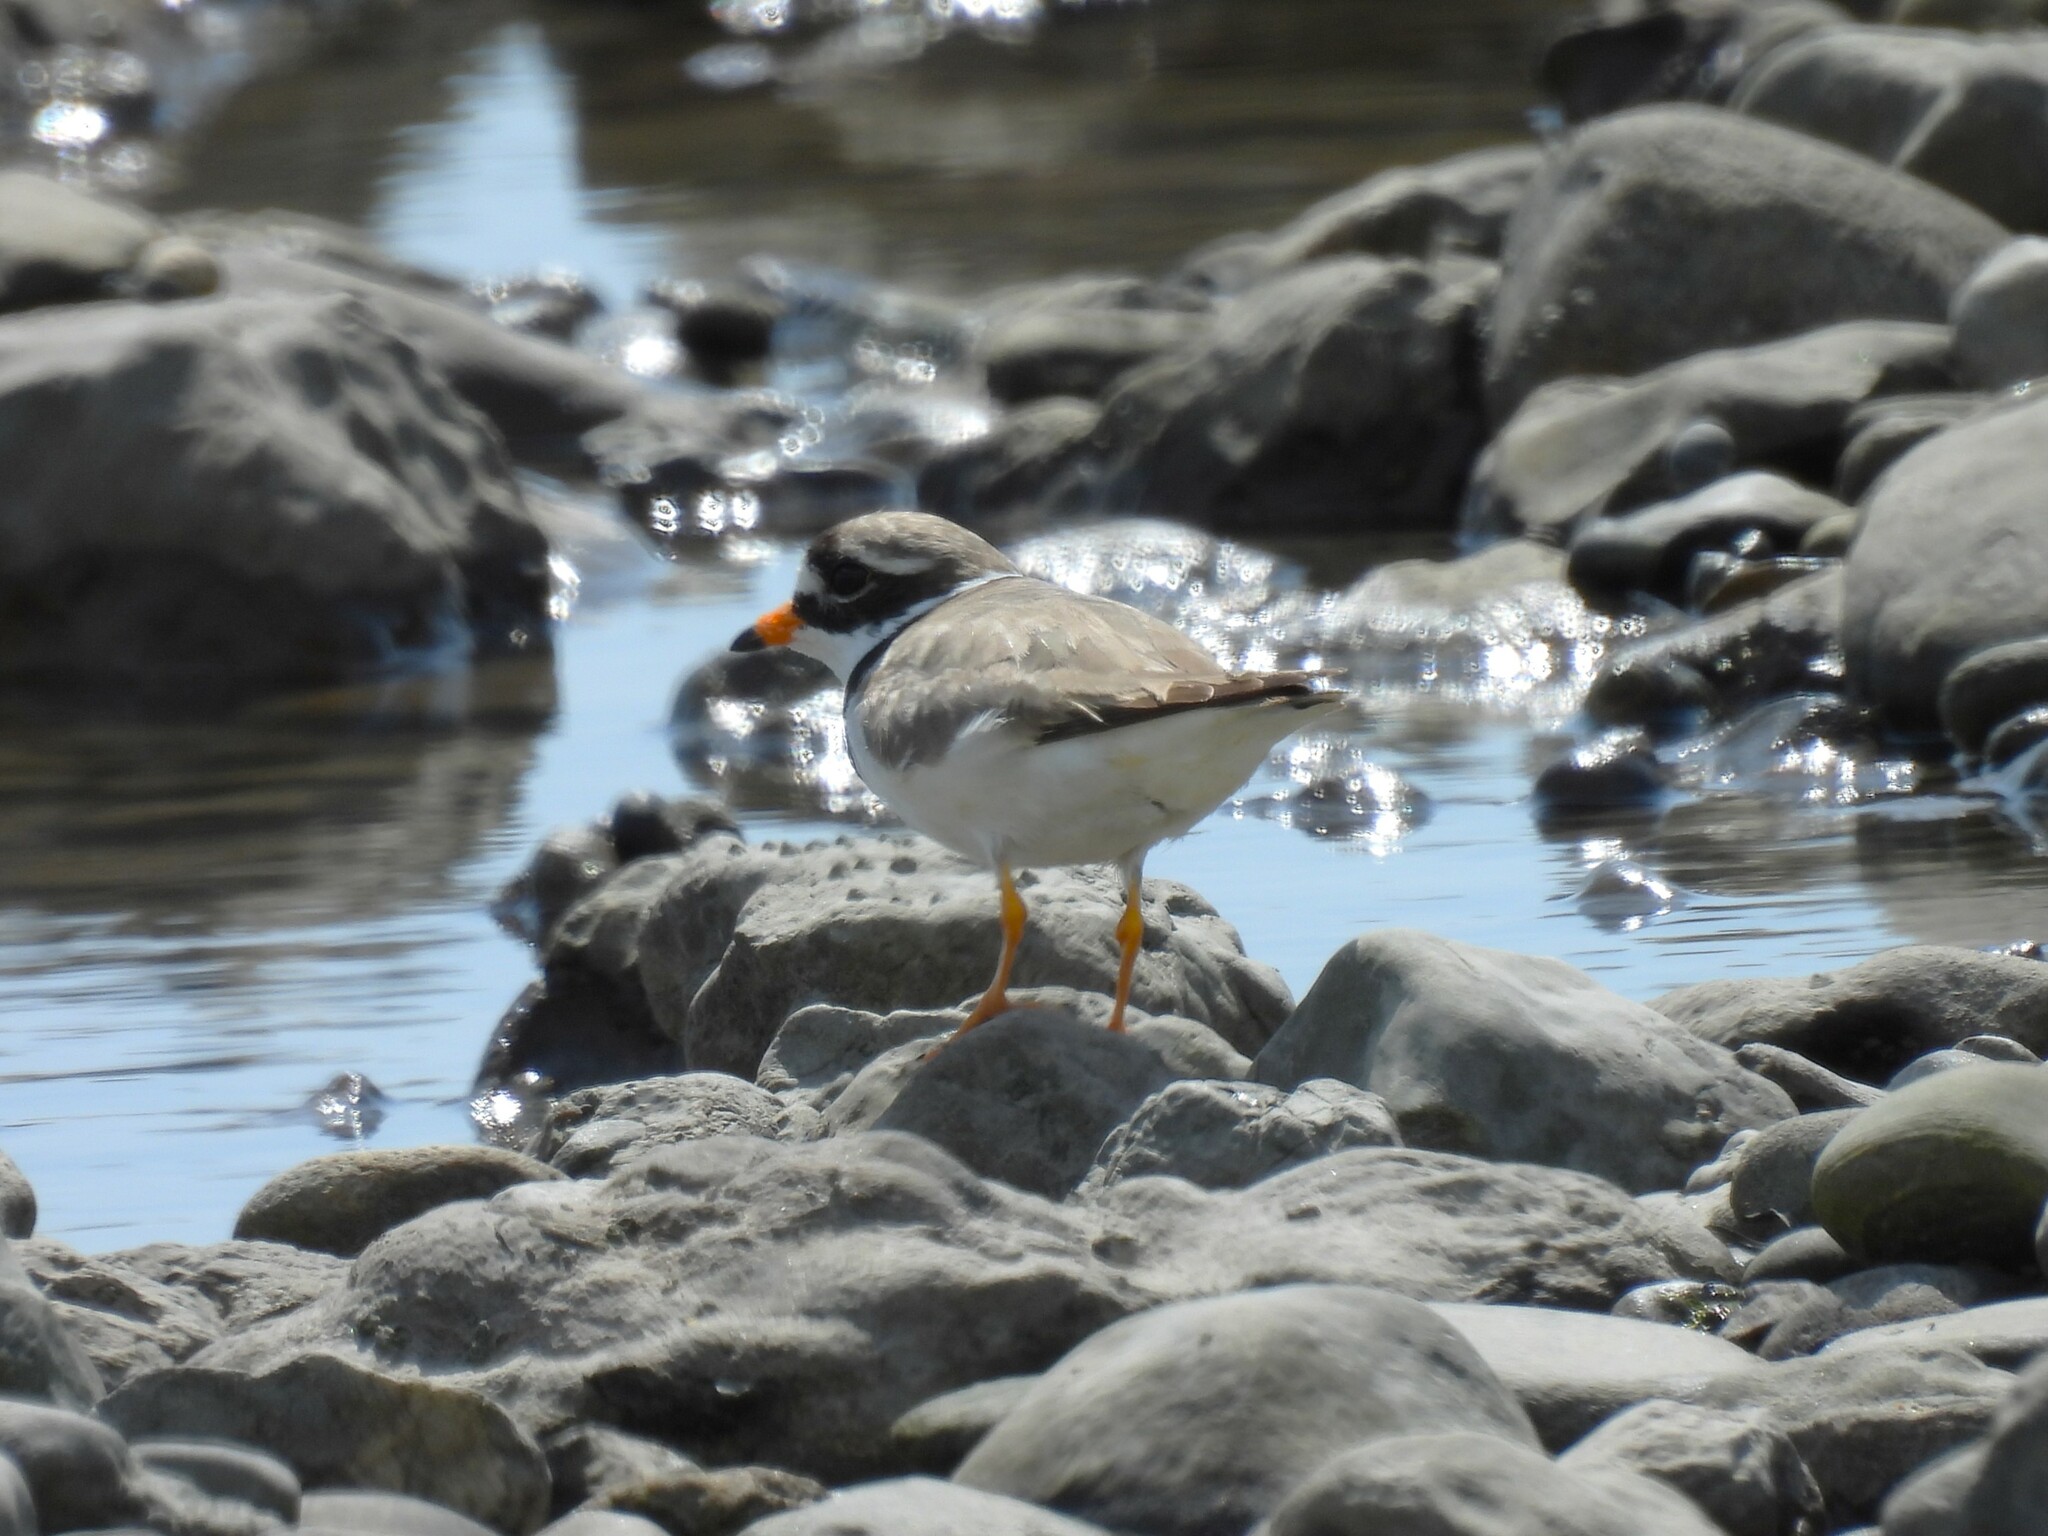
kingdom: Animalia
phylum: Chordata
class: Aves
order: Charadriiformes
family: Charadriidae
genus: Charadrius
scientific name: Charadrius hiaticula
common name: Common ringed plover
